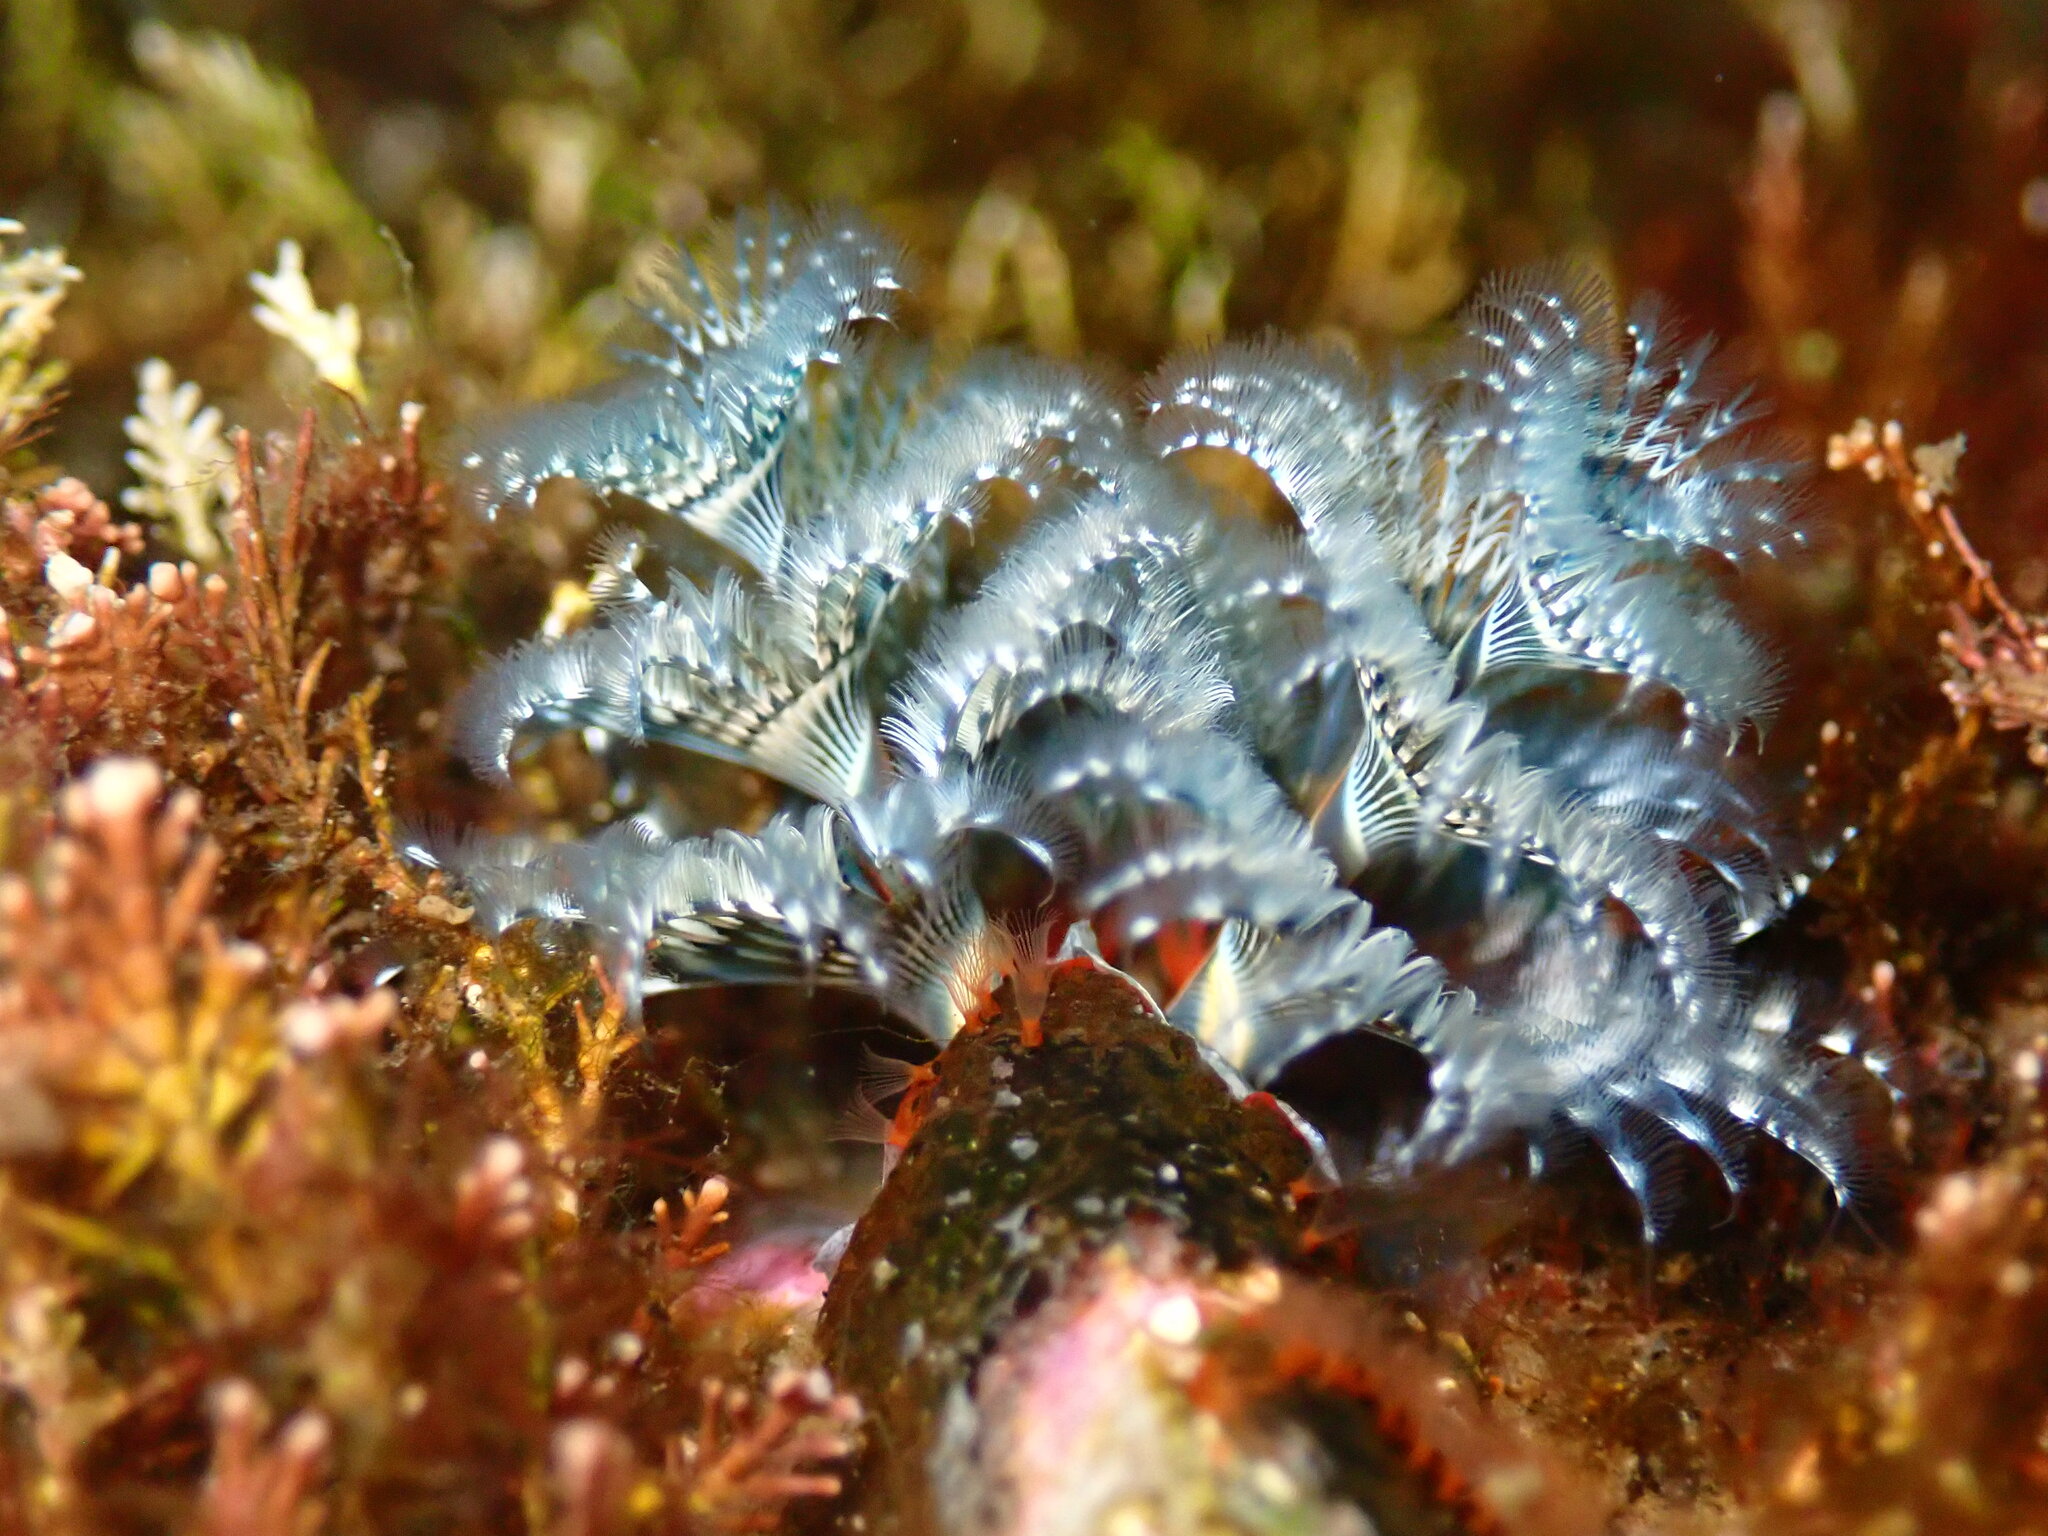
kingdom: Animalia
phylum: Annelida
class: Polychaeta
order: Sabellida
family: Serpulidae
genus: Spirobranchus
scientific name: Spirobranchus spinosus
